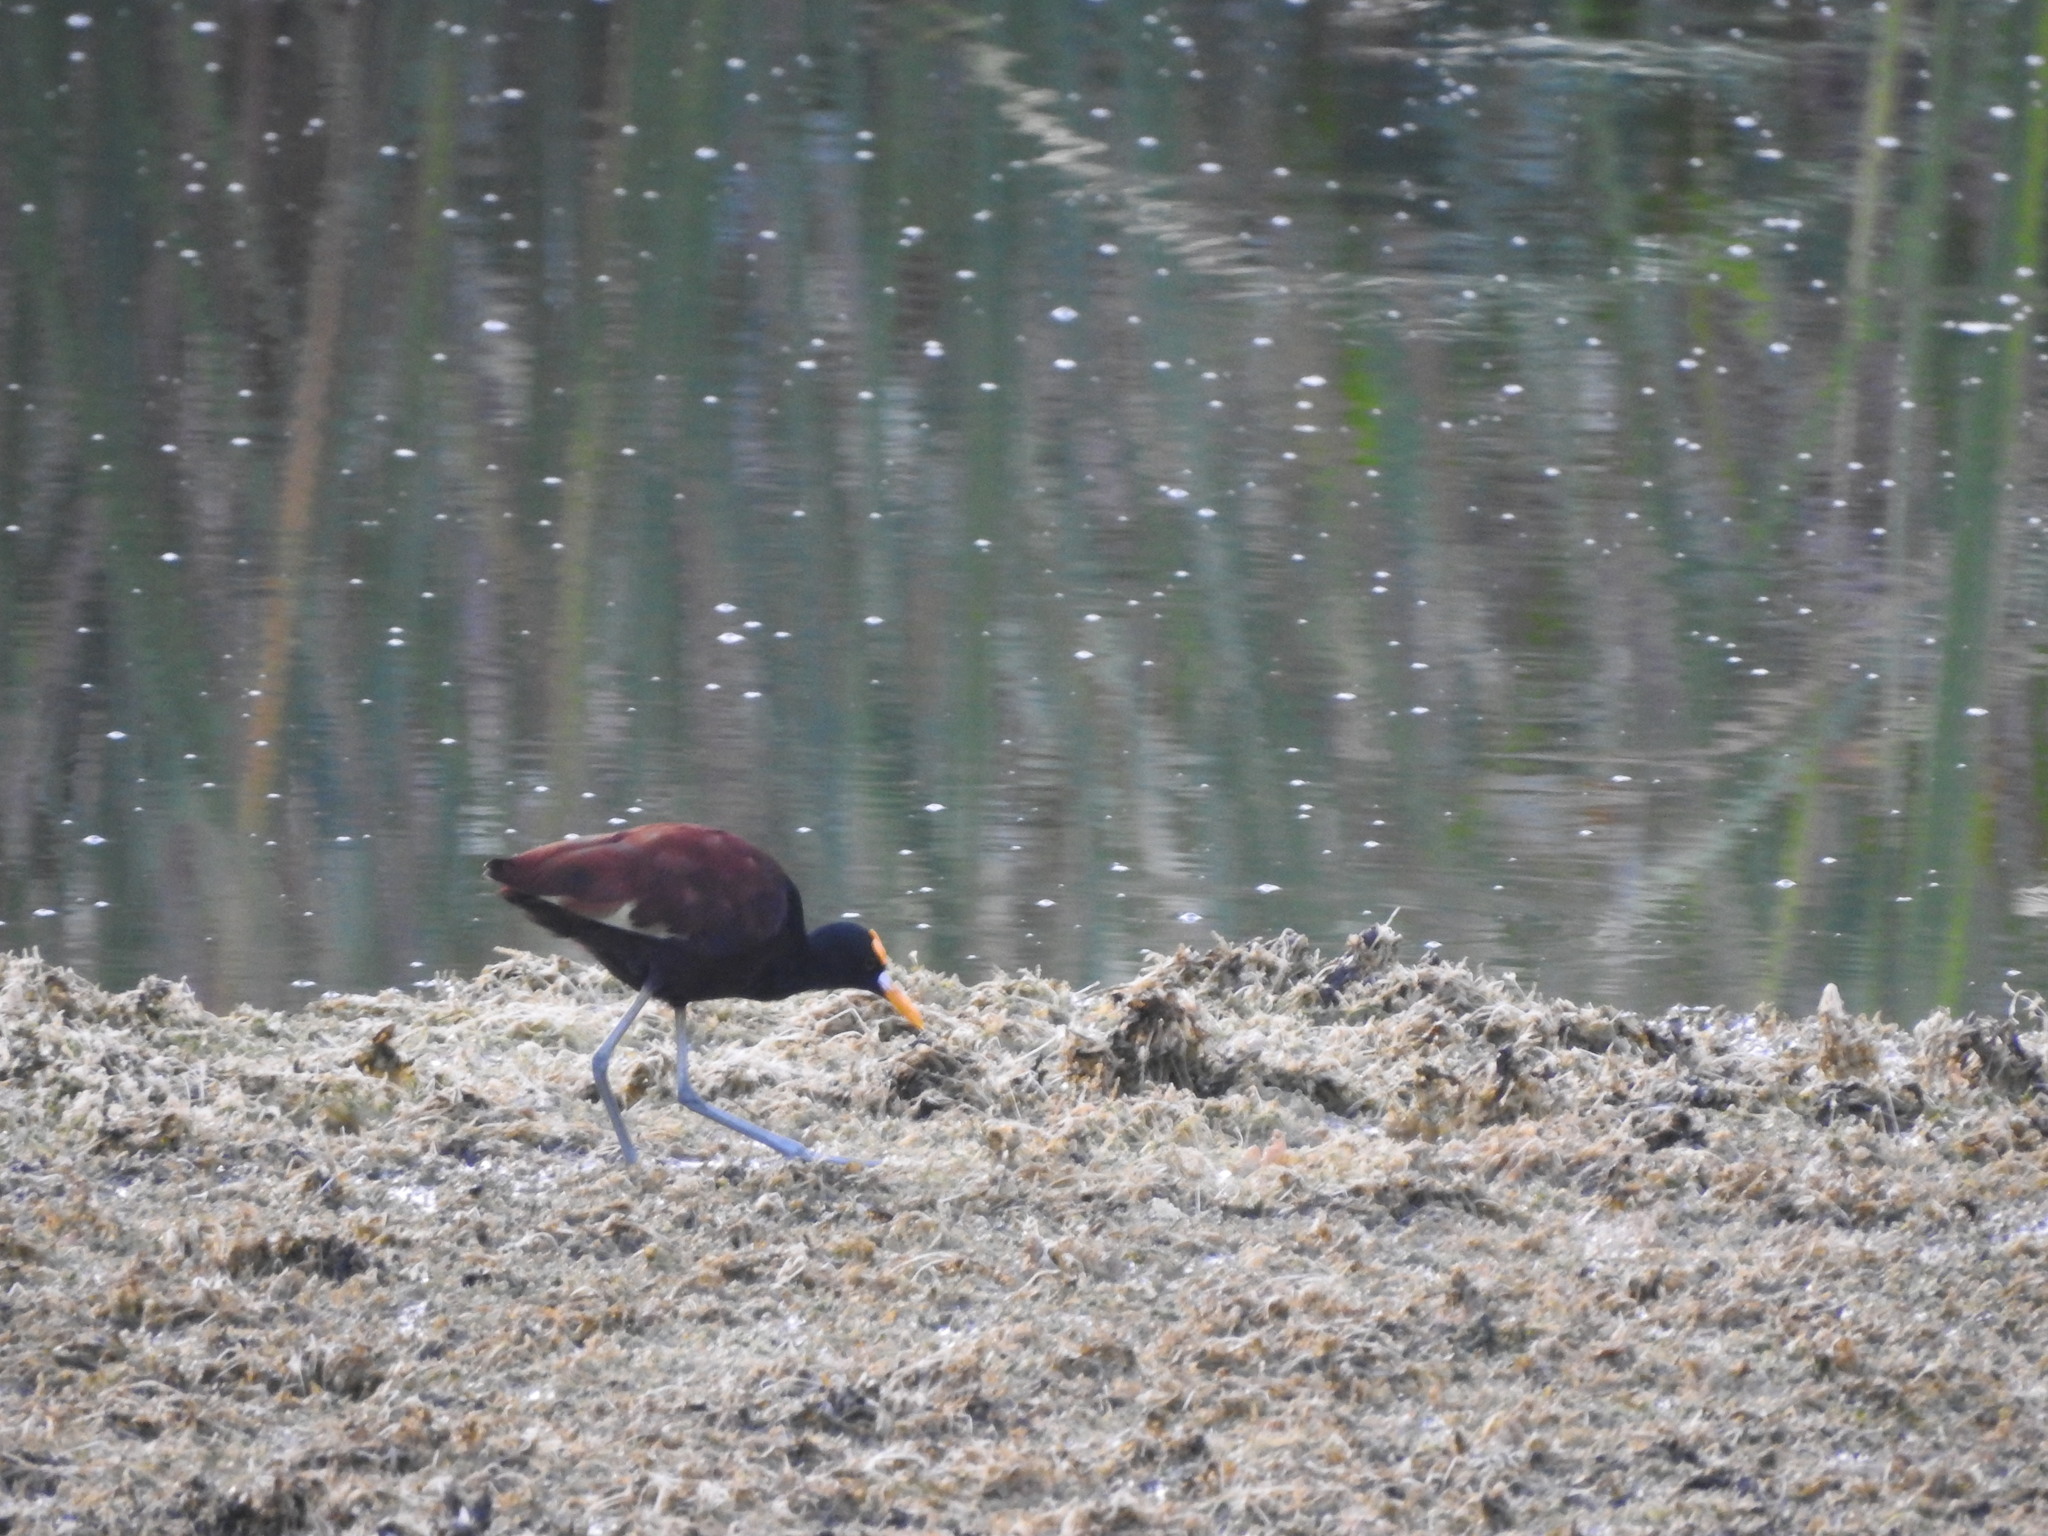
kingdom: Animalia
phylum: Chordata
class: Aves
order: Charadriiformes
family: Jacanidae
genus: Jacana
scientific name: Jacana spinosa
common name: Northern jacana
